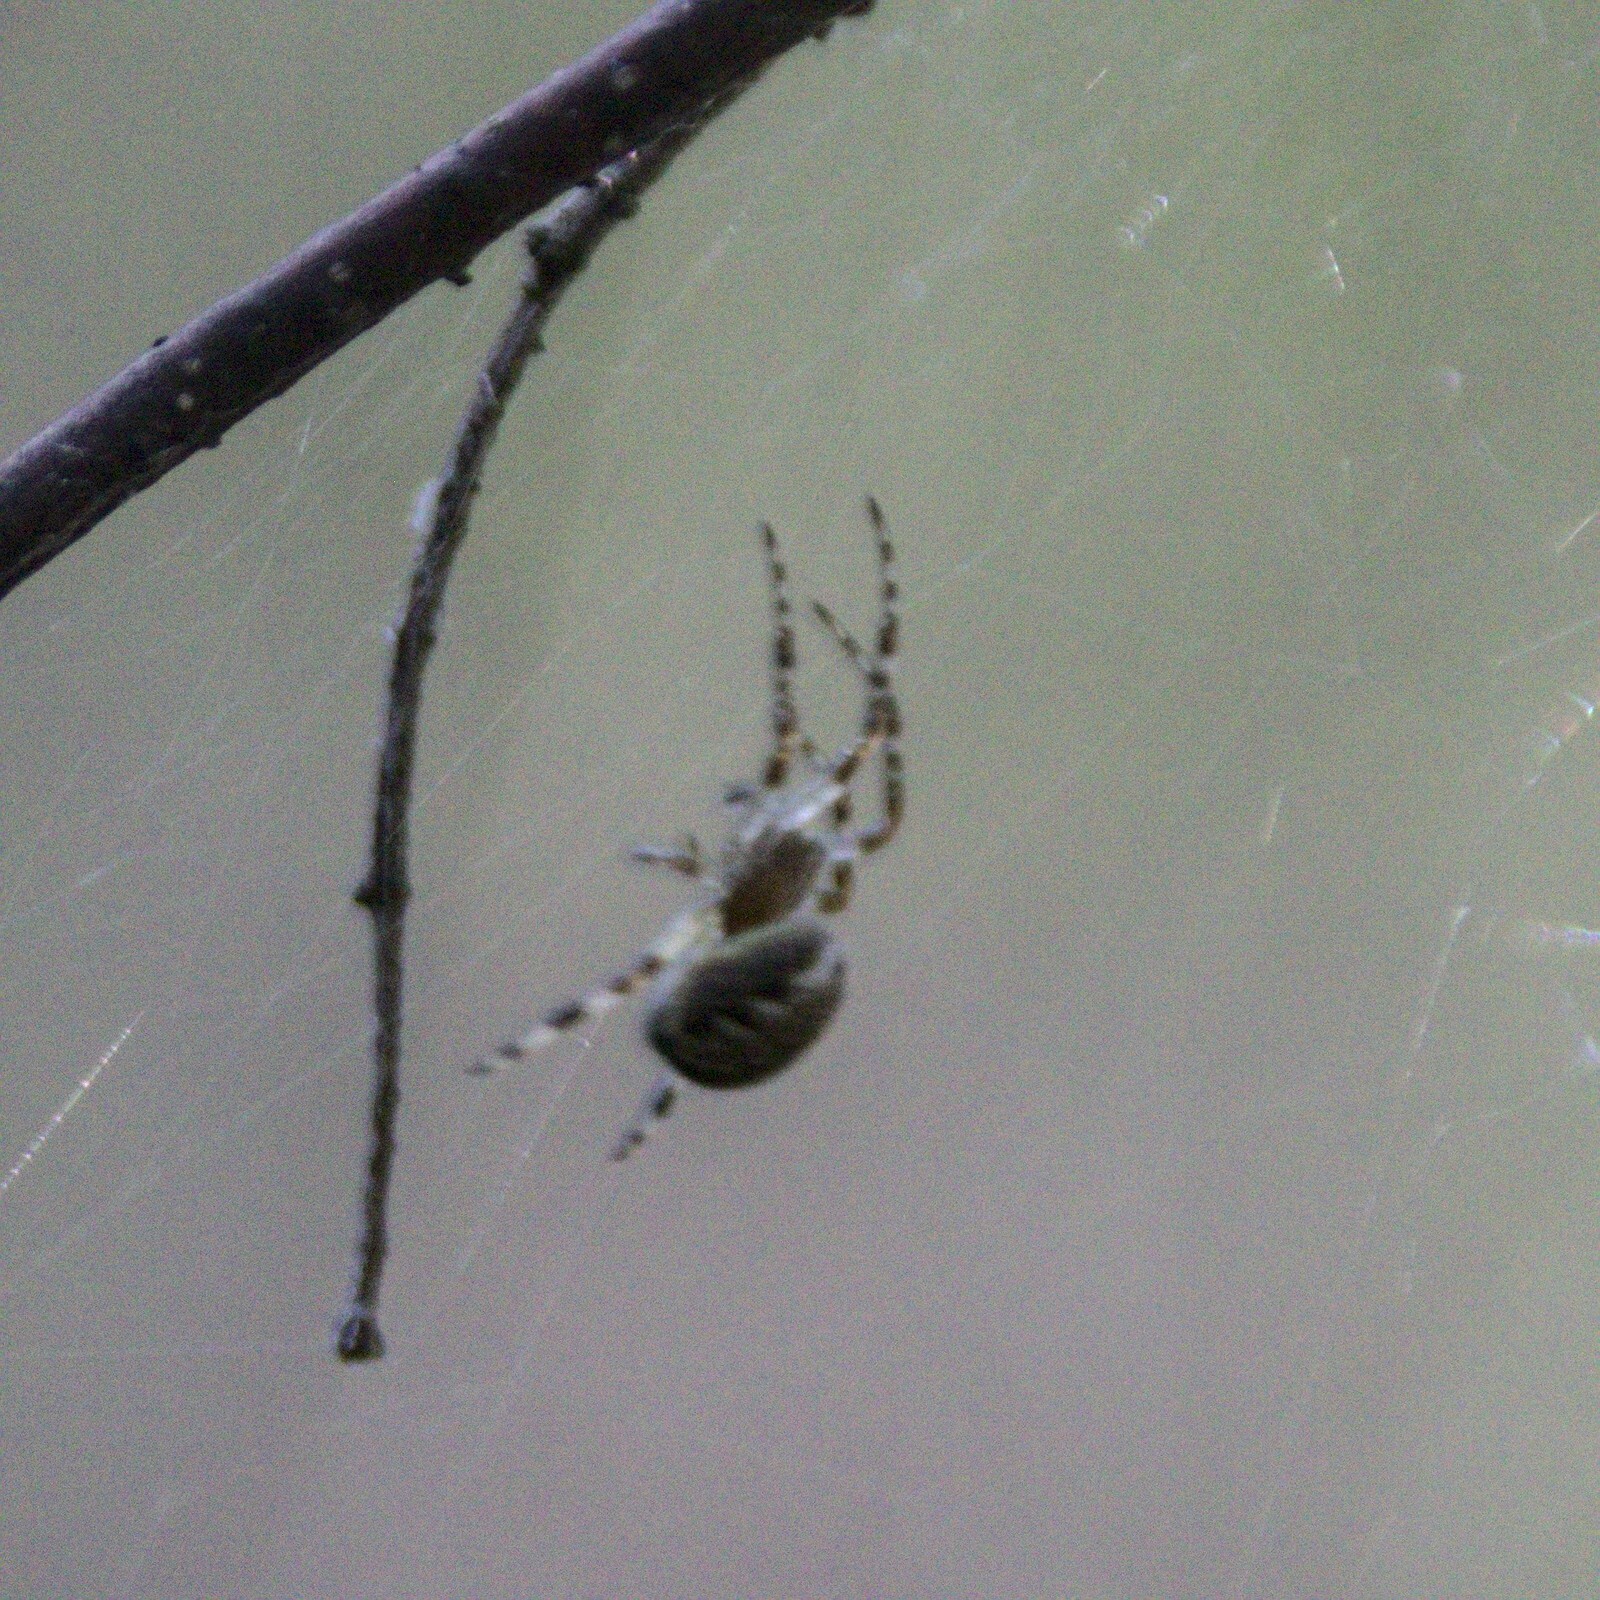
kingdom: Animalia
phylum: Arthropoda
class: Arachnida
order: Araneae
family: Araneidae
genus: Araneus
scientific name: Araneus diadematus
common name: Cross orbweaver
